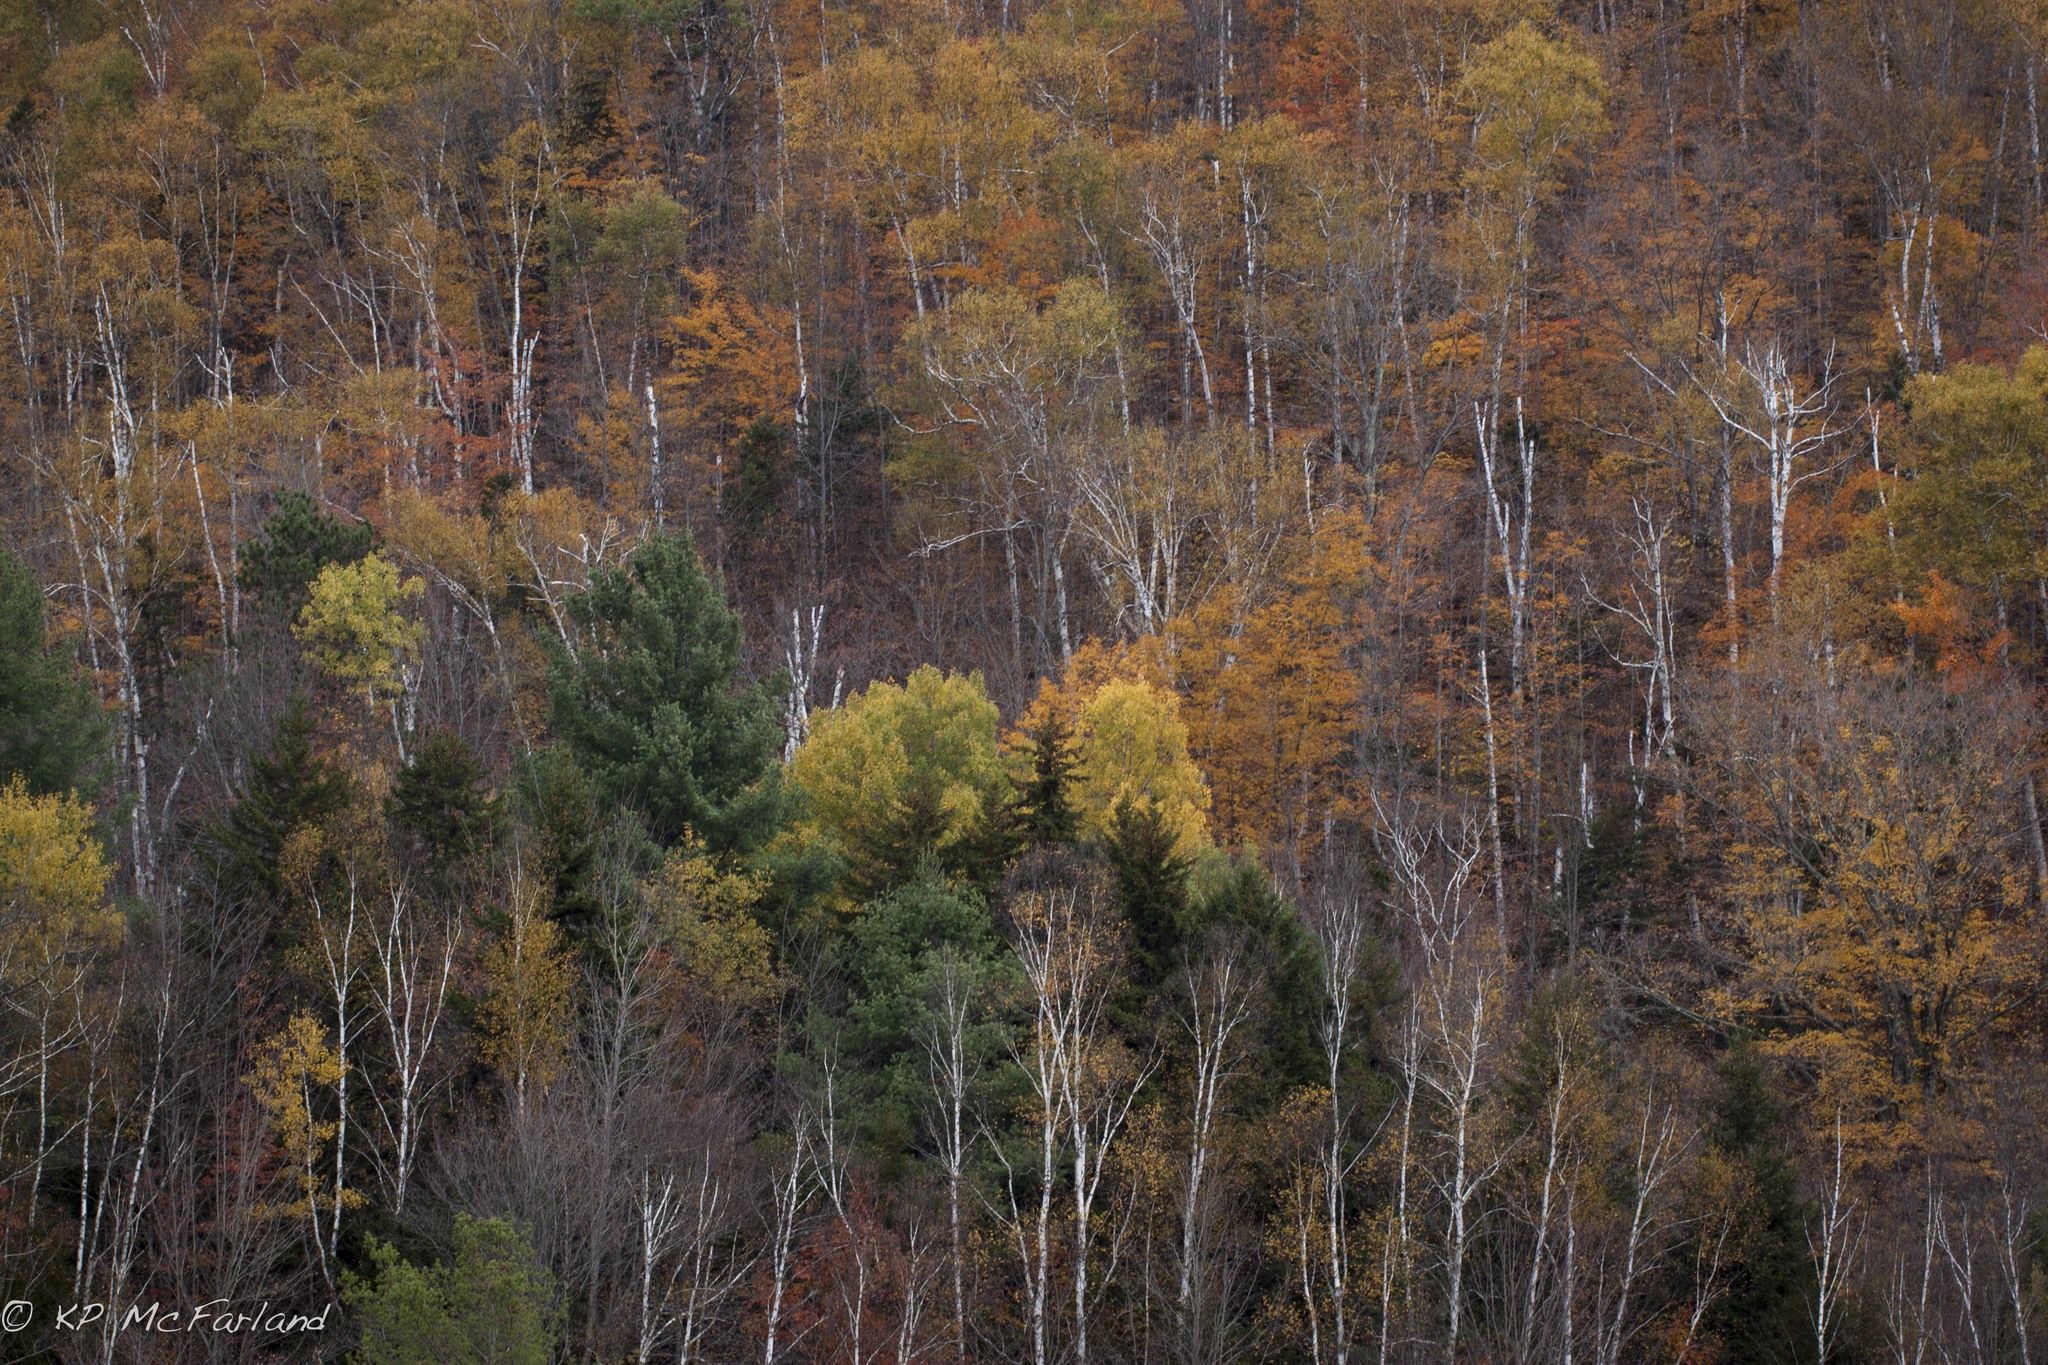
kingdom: Plantae
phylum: Tracheophyta
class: Magnoliopsida
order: Fagales
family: Betulaceae
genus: Betula
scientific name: Betula papyrifera
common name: Paper birch
